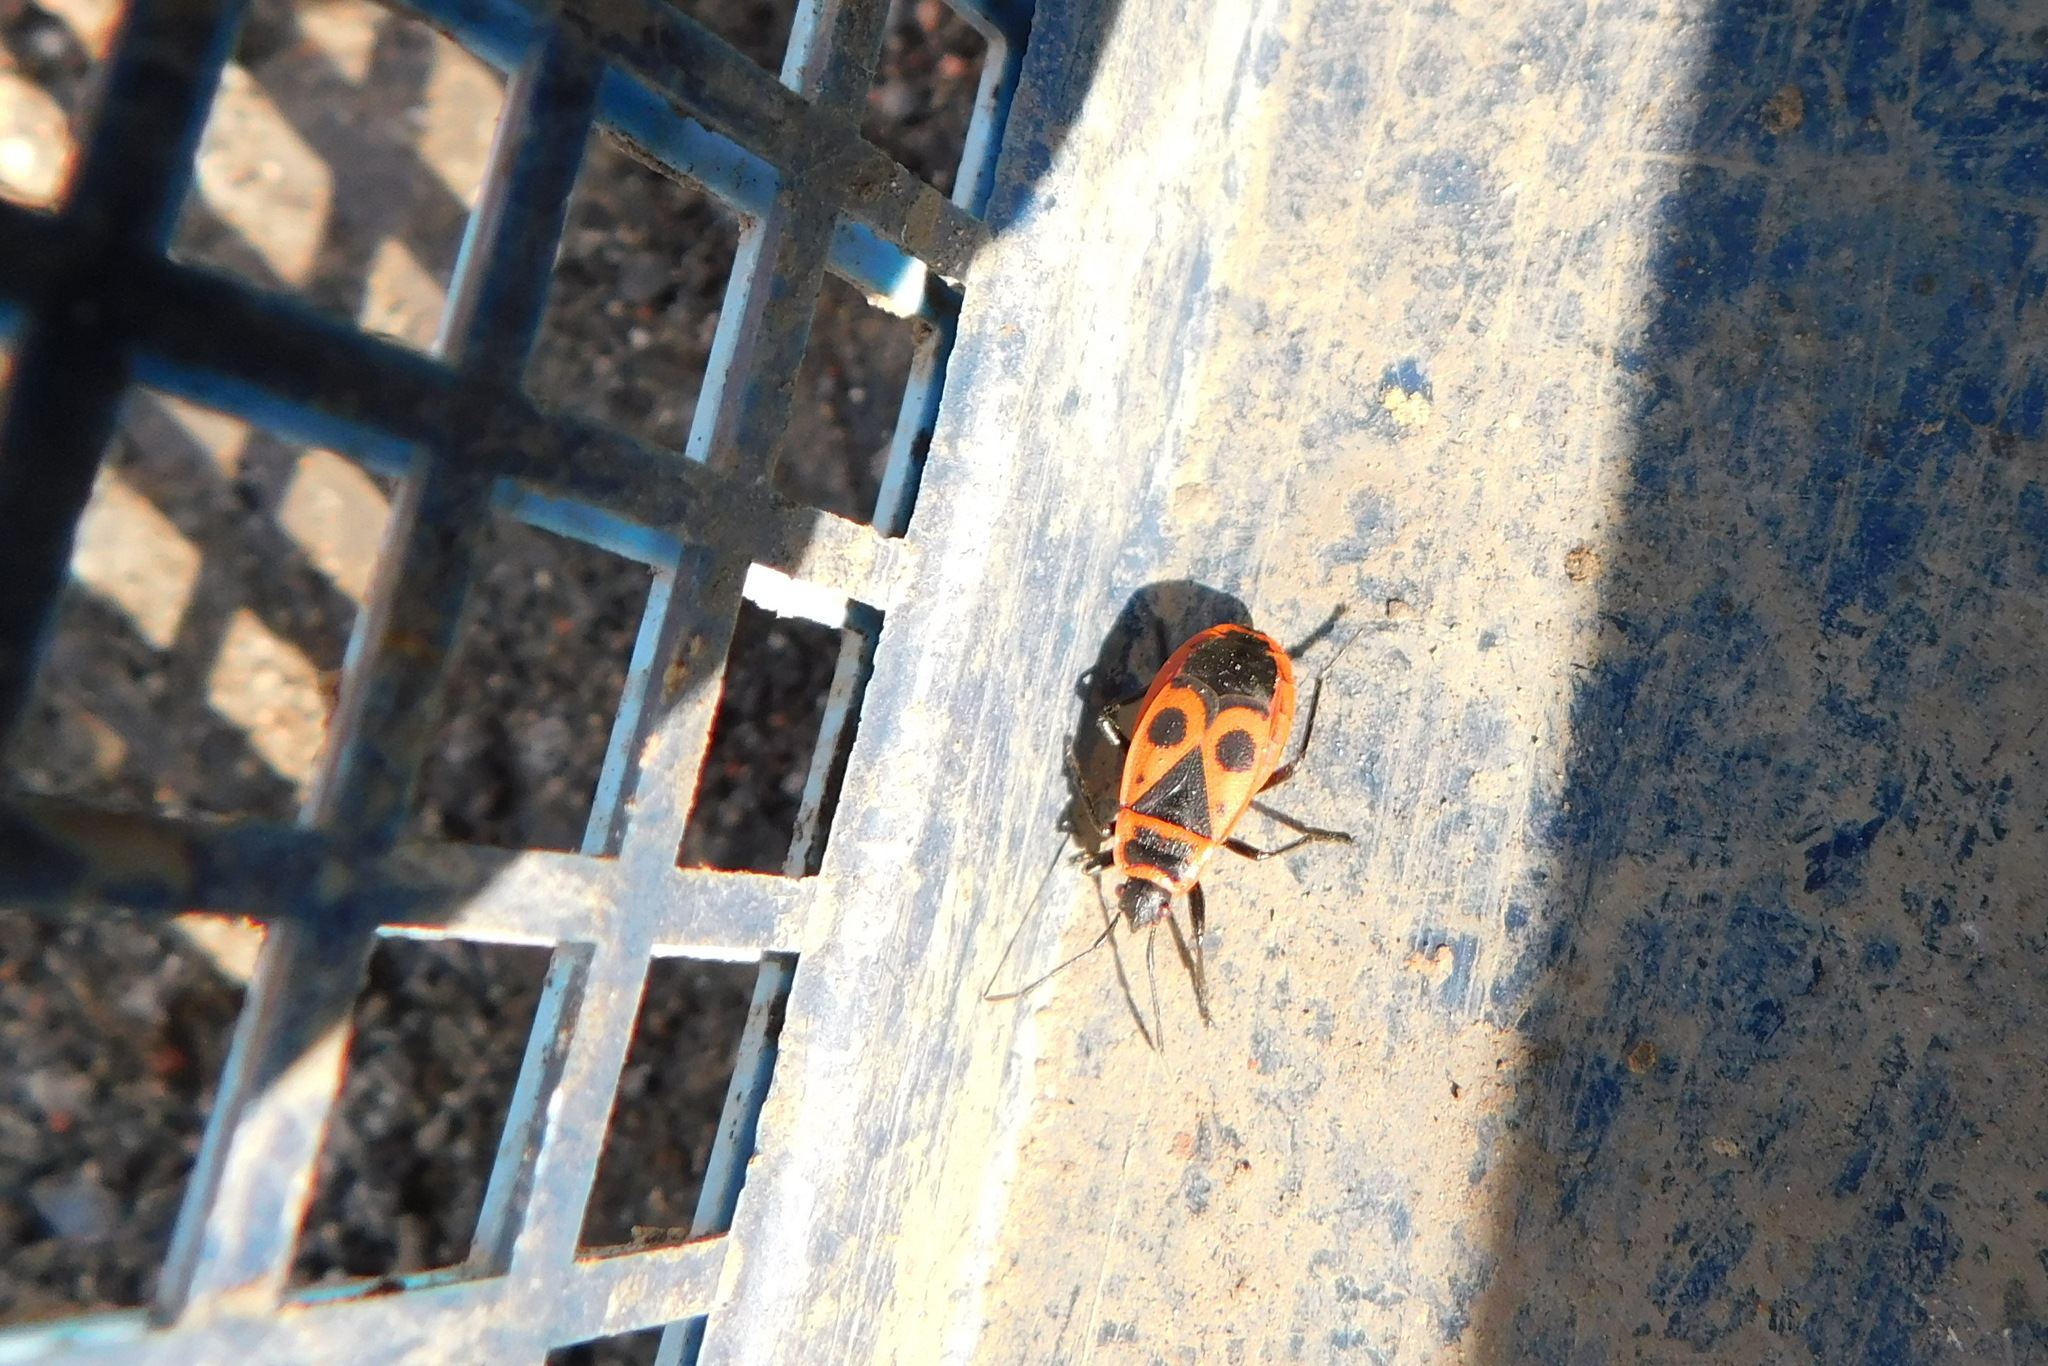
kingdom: Animalia
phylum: Arthropoda
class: Insecta
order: Hemiptera
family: Pyrrhocoridae
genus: Pyrrhocoris
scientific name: Pyrrhocoris apterus
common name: Firebug
